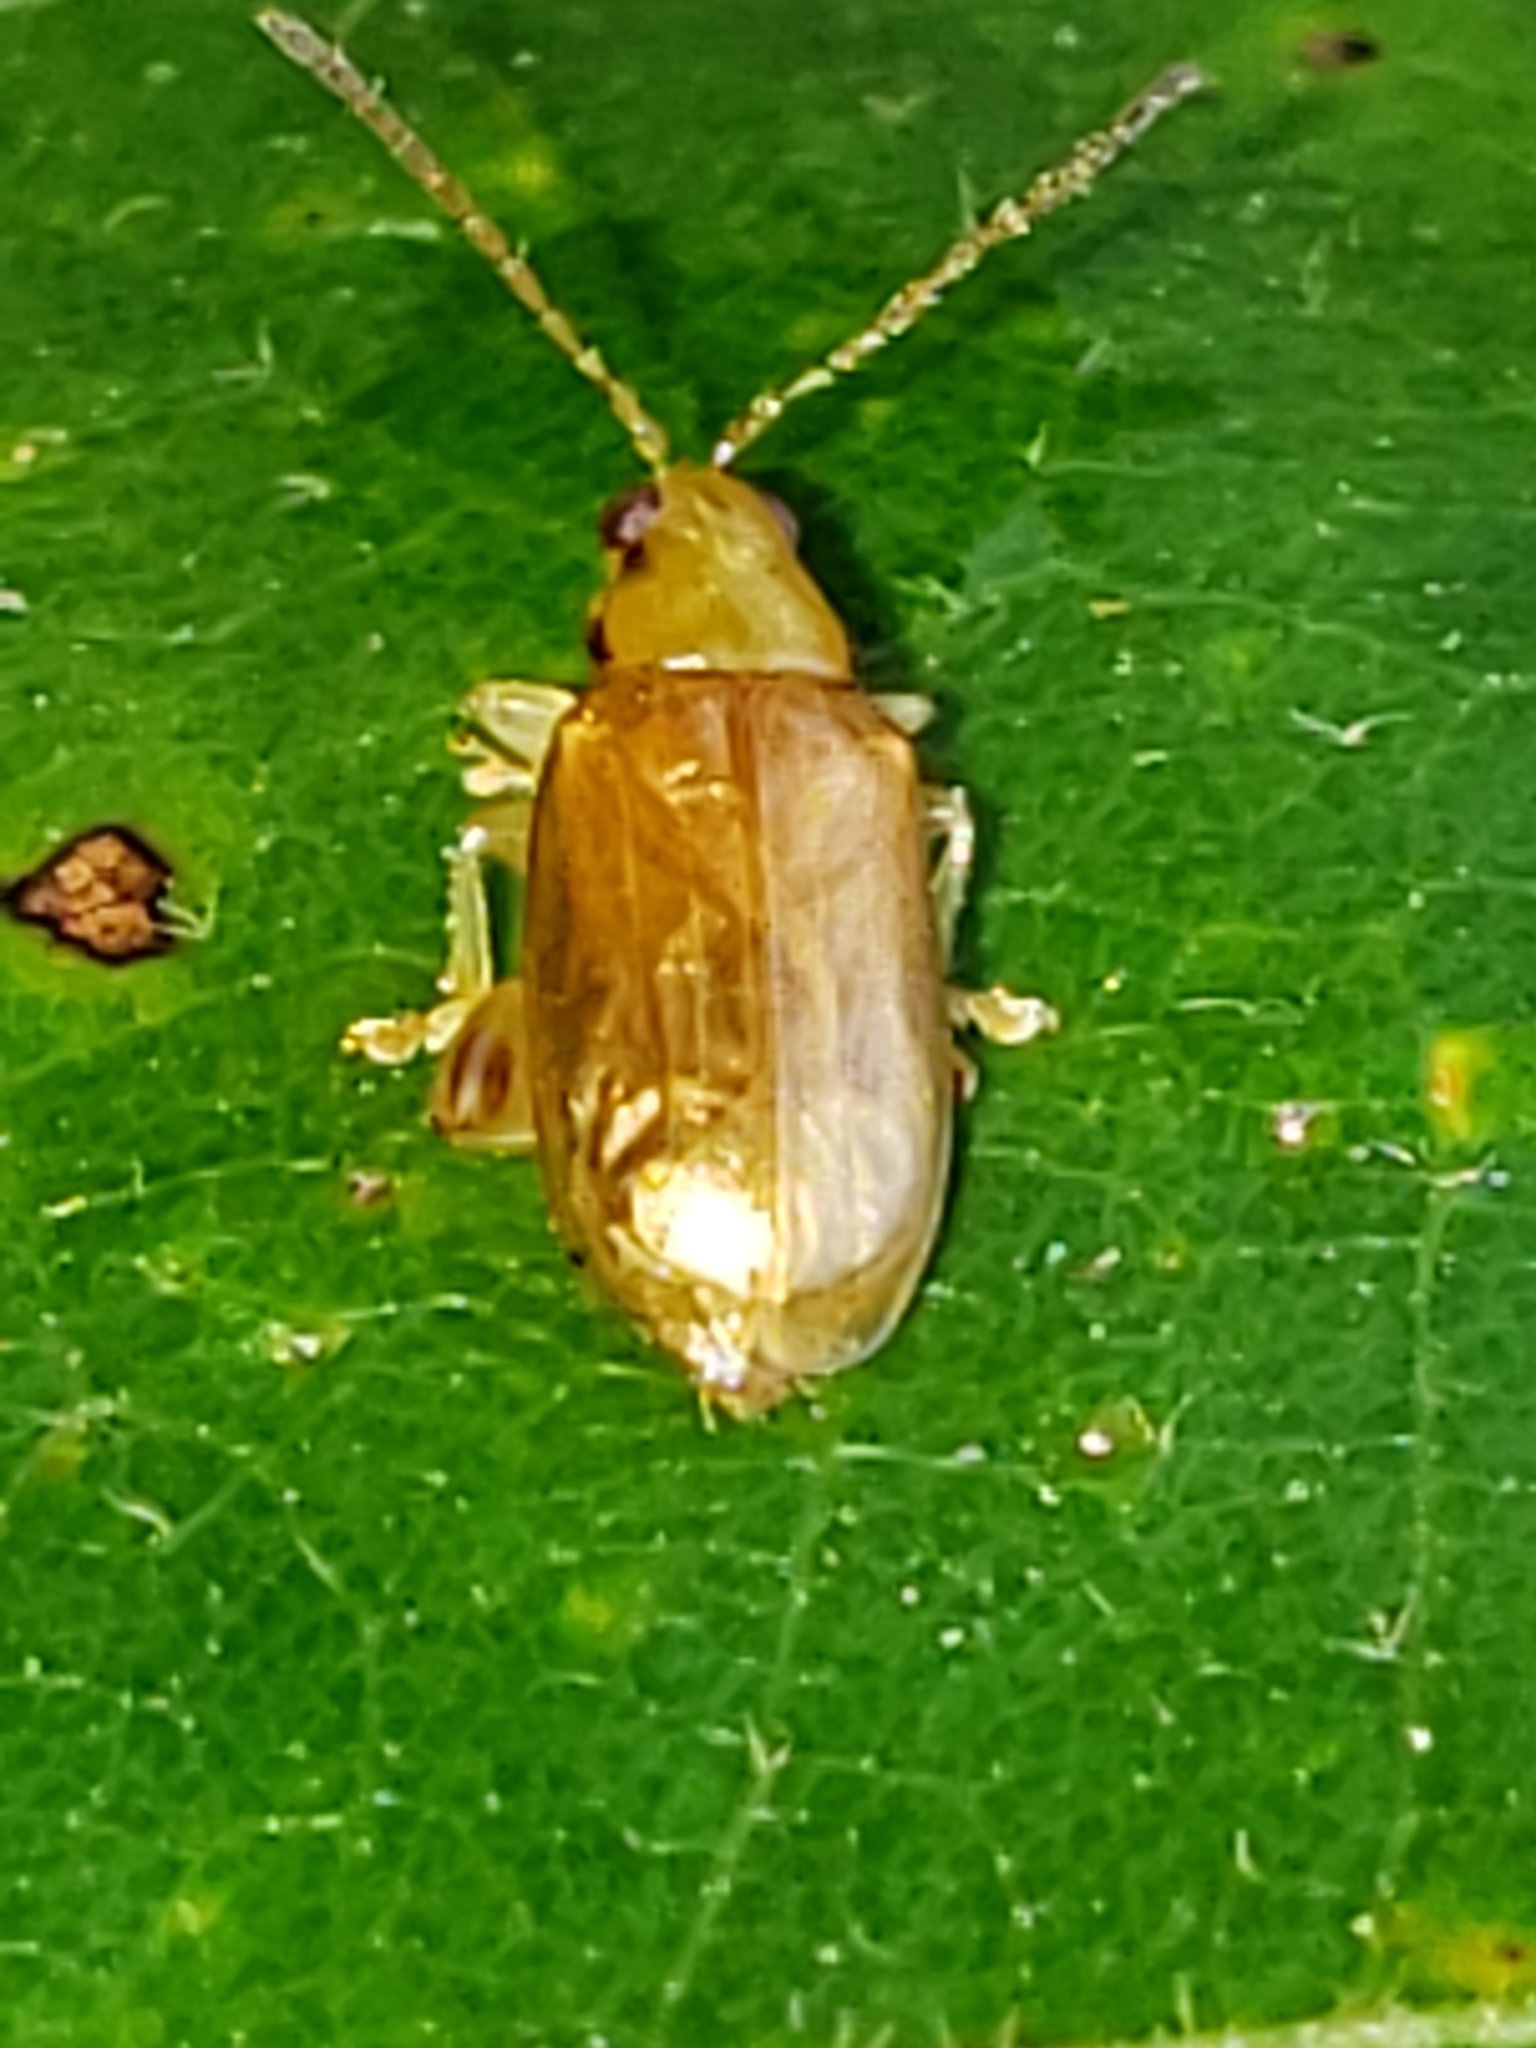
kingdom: Animalia
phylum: Arthropoda
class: Insecta
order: Coleoptera
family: Chrysomelidae
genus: Systena
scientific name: Systena marginalis
